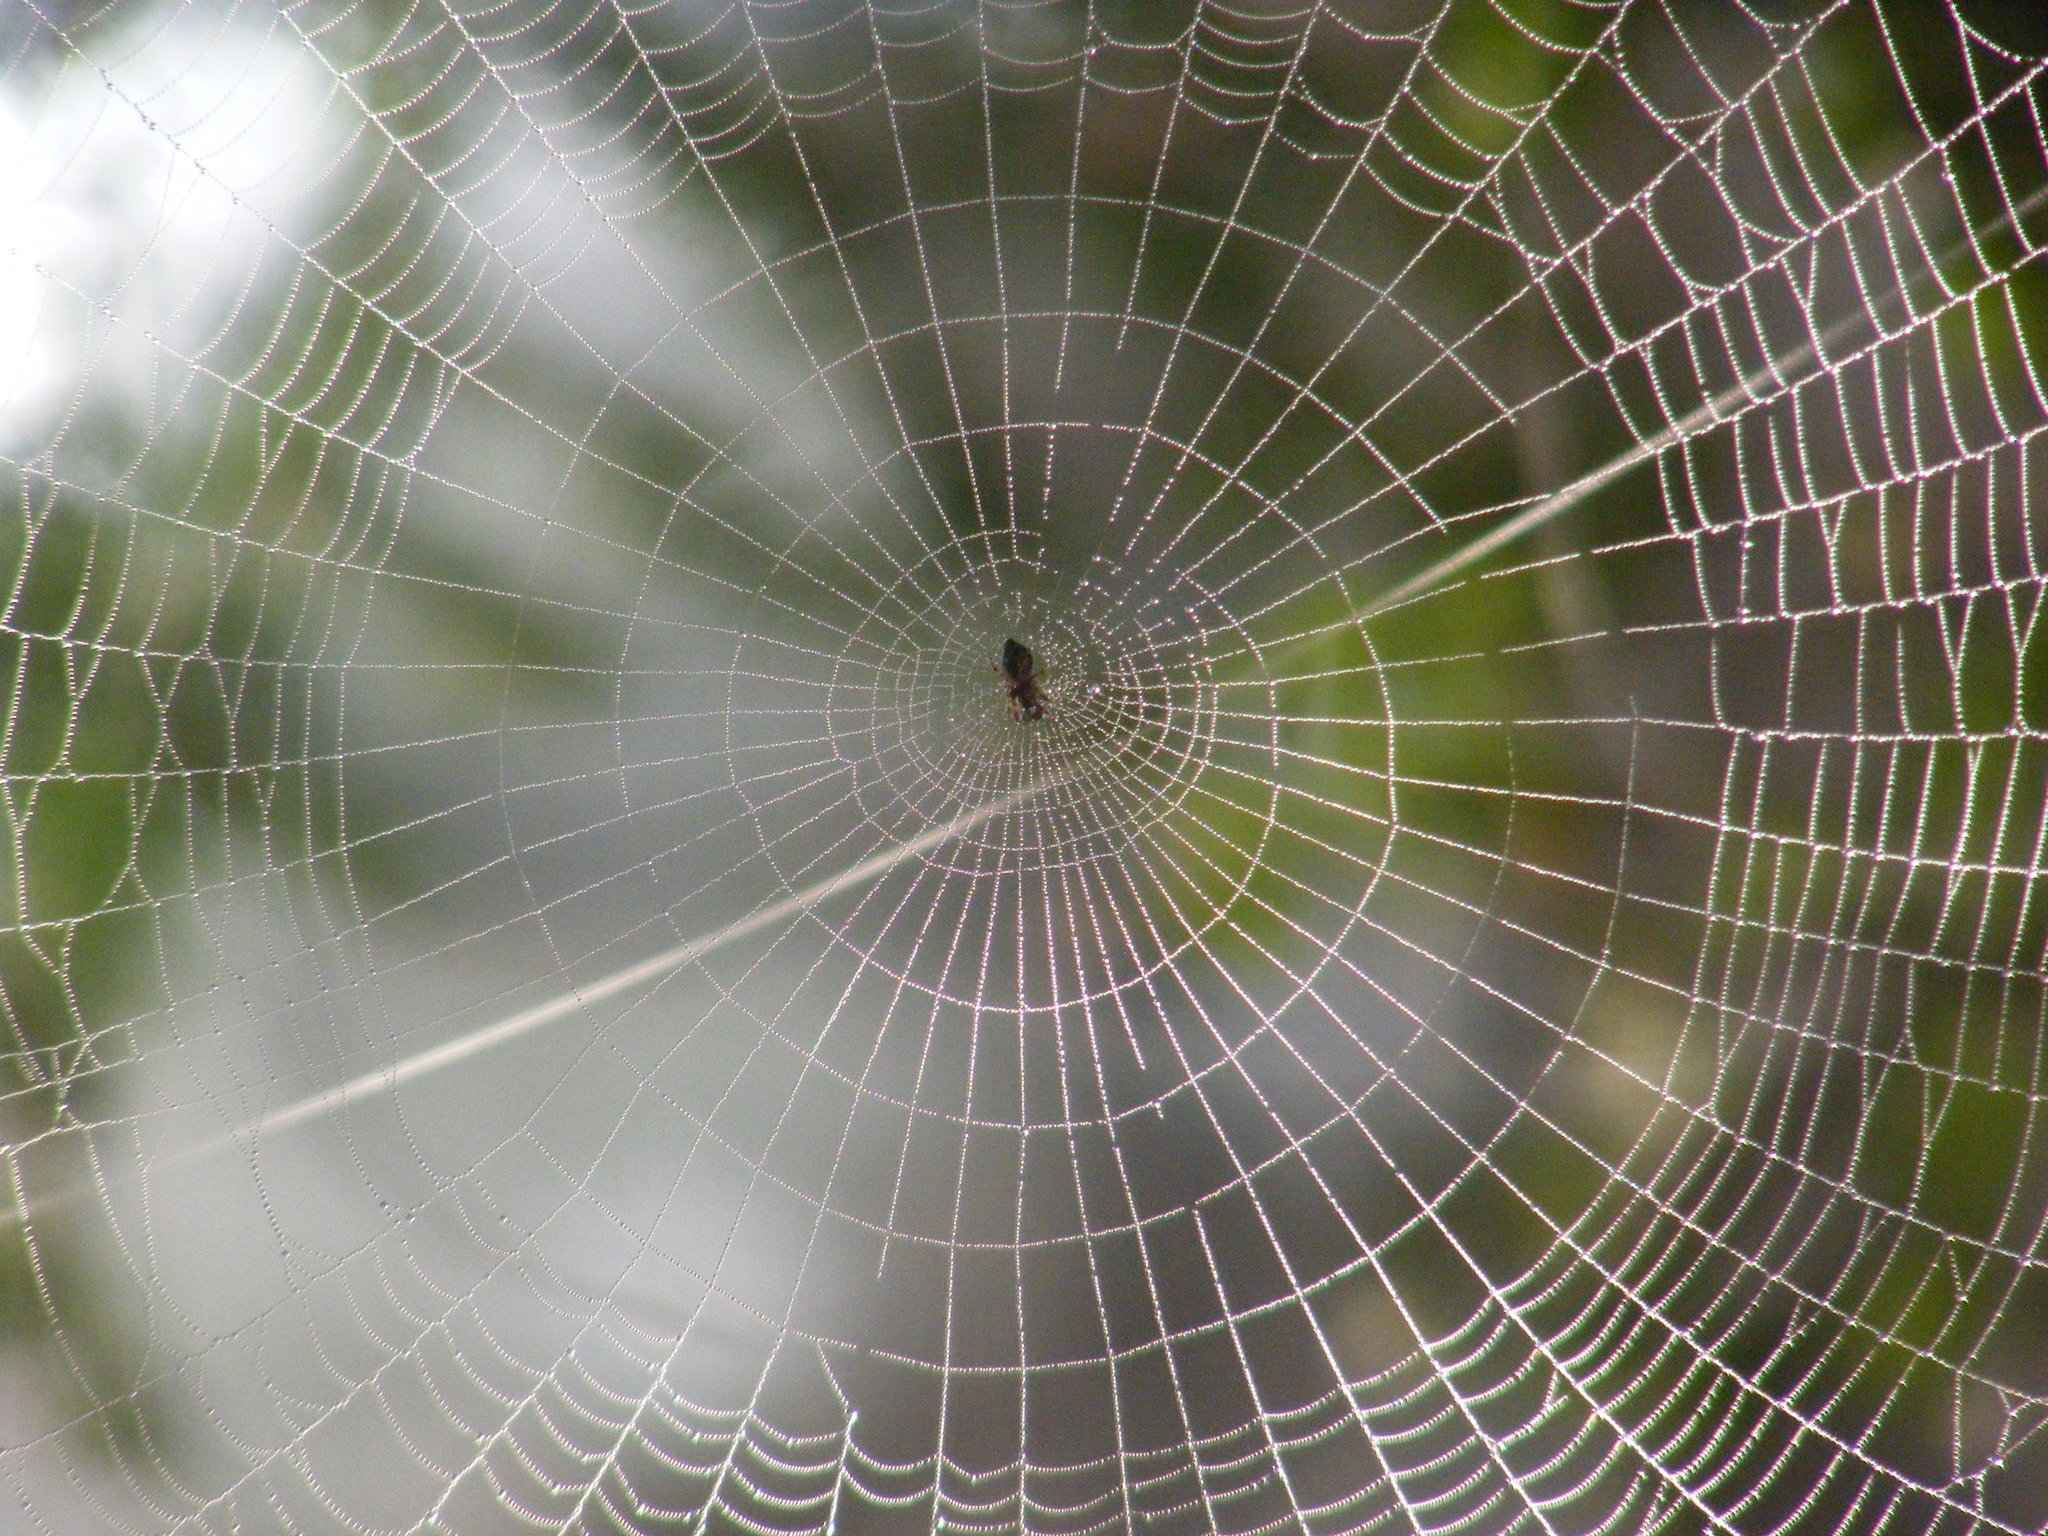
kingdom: Animalia
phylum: Arthropoda
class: Arachnida
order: Araneae
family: Araneidae
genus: Cyclosa
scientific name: Cyclosa conica
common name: Conical trashline orbweaver
